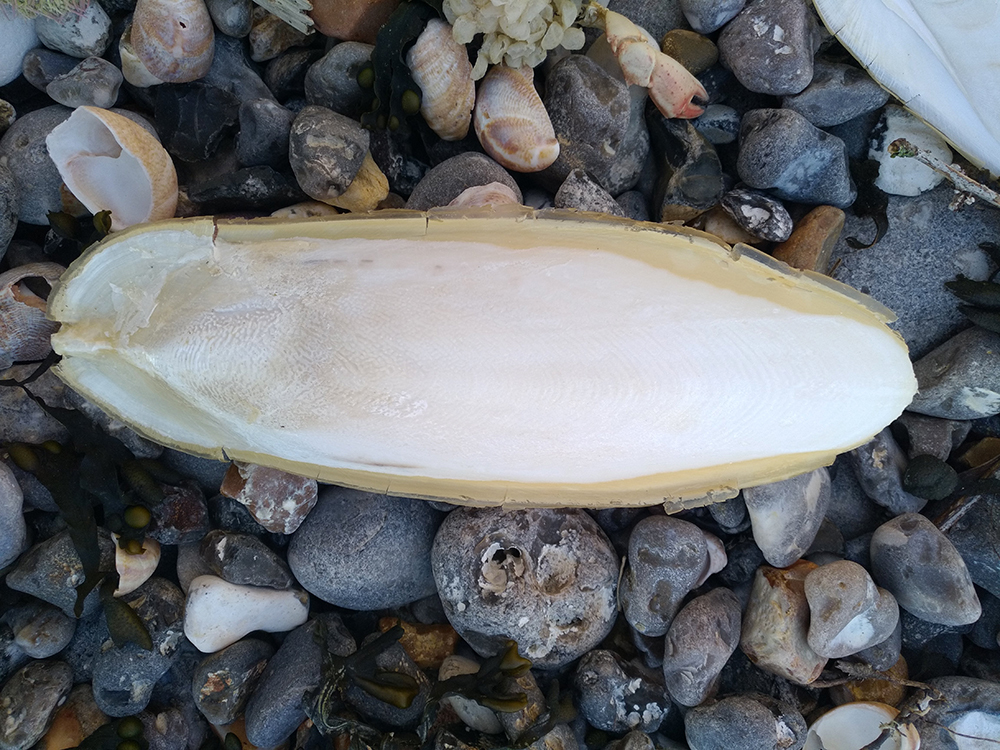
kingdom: Animalia
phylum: Mollusca
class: Cephalopoda
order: Sepiida
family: Sepiidae
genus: Sepia
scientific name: Sepia officinalis
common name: Common cuttlefish
